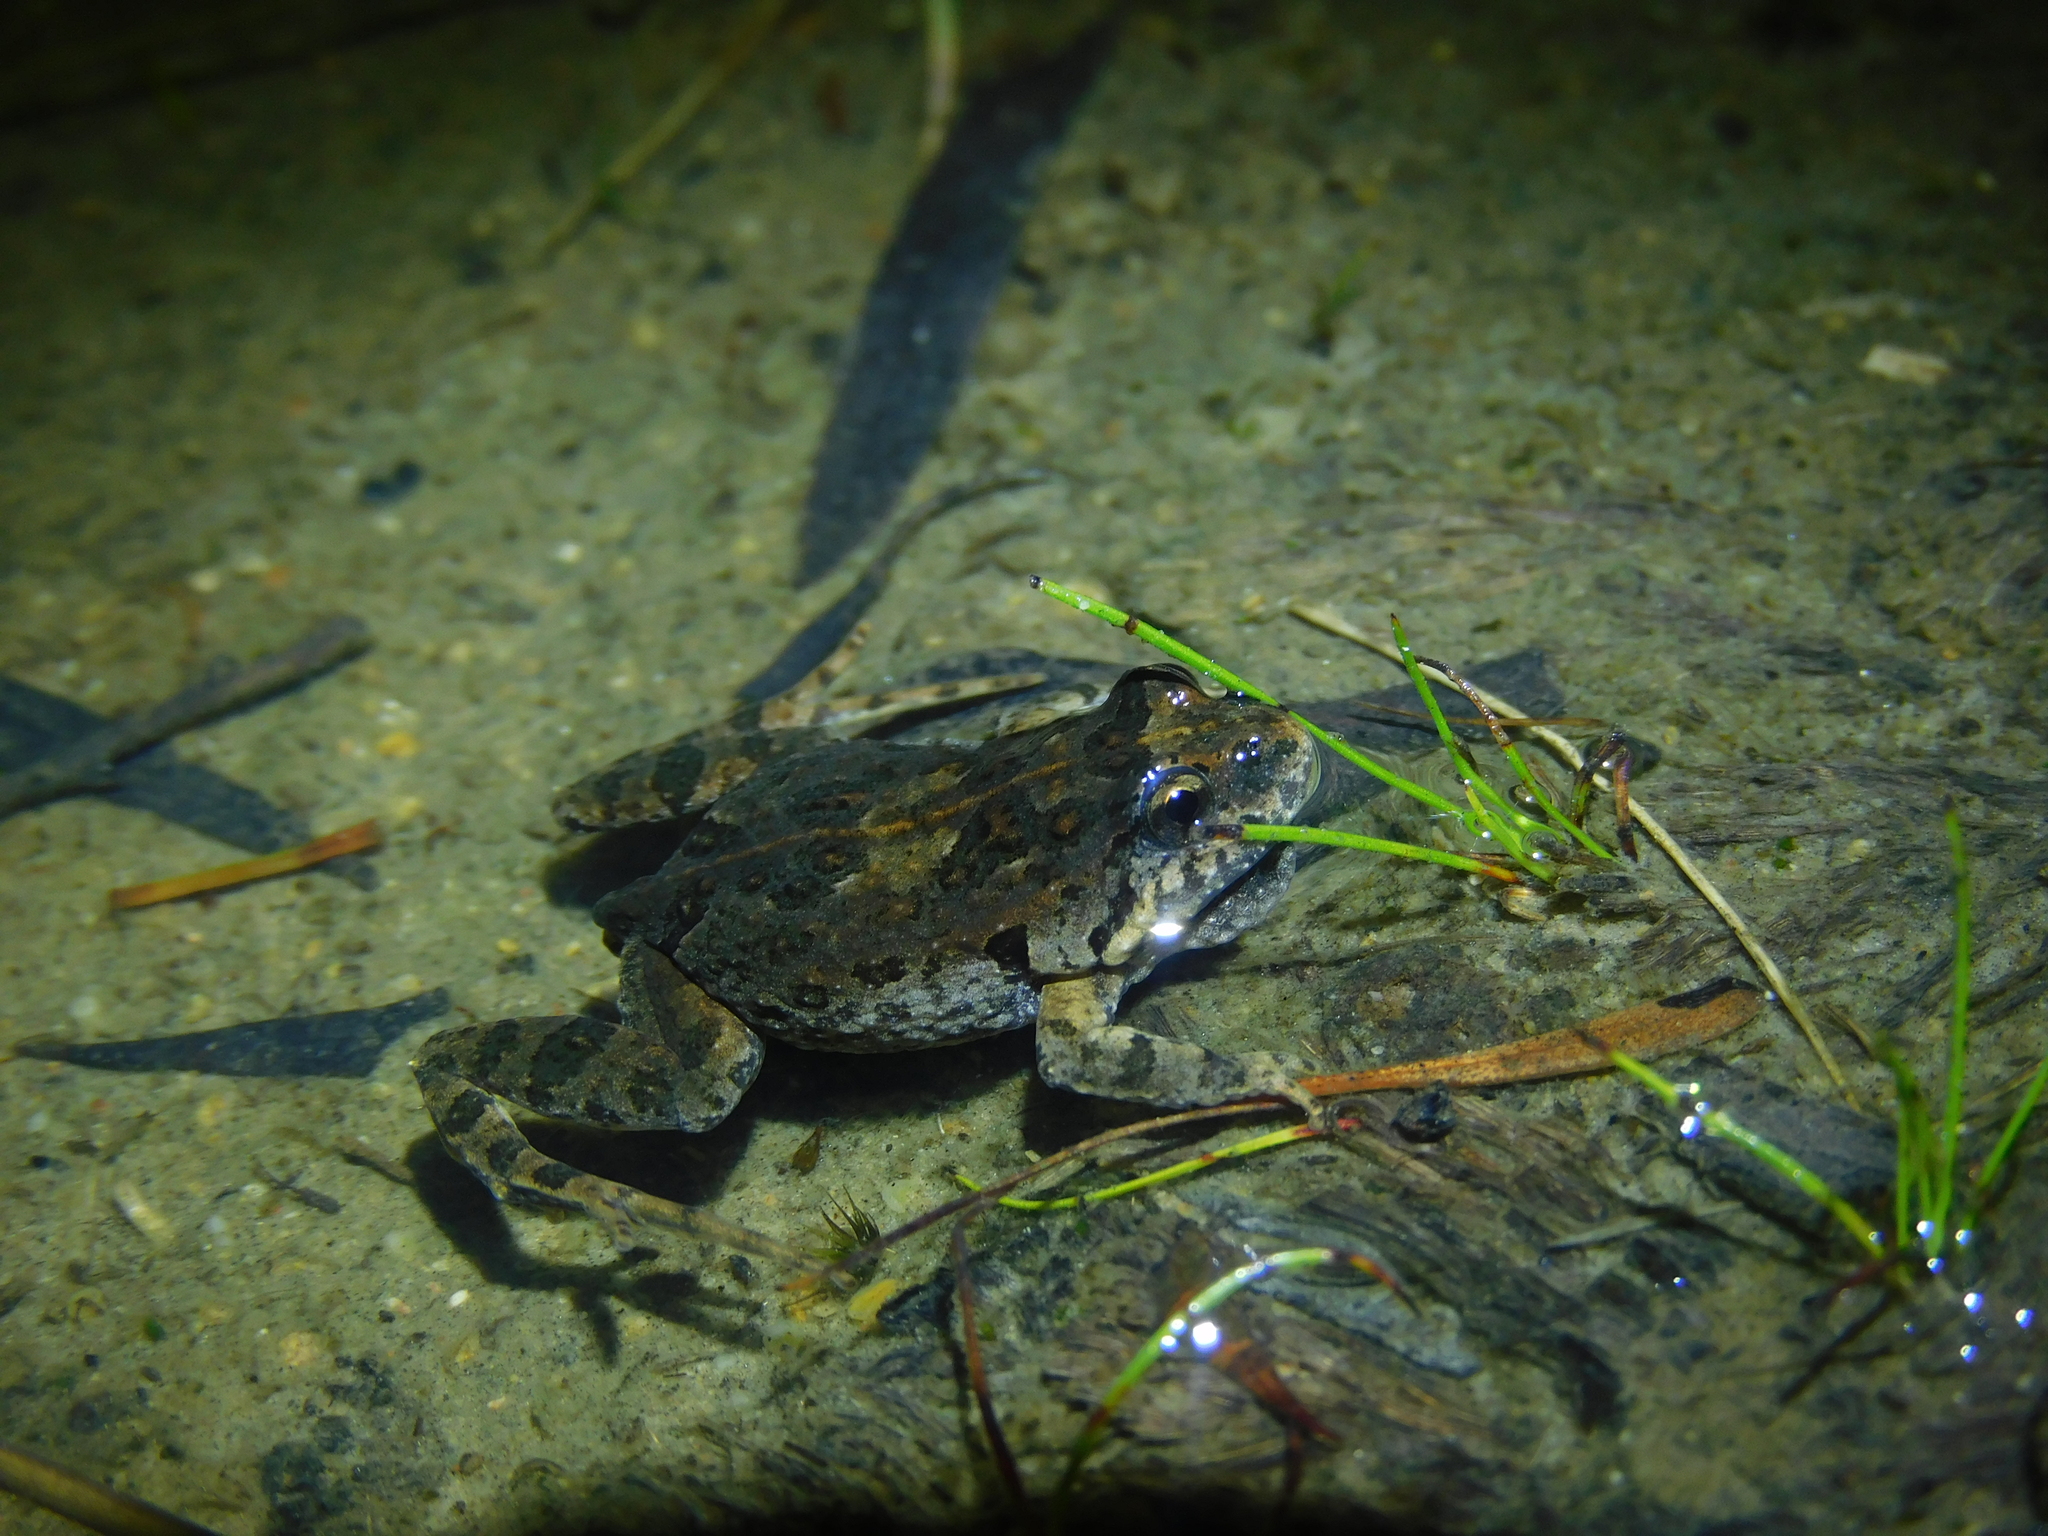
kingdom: Animalia
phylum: Chordata
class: Amphibia
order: Anura
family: Myobatrachidae
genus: Crinia
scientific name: Crinia signifera
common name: Brown froglet
